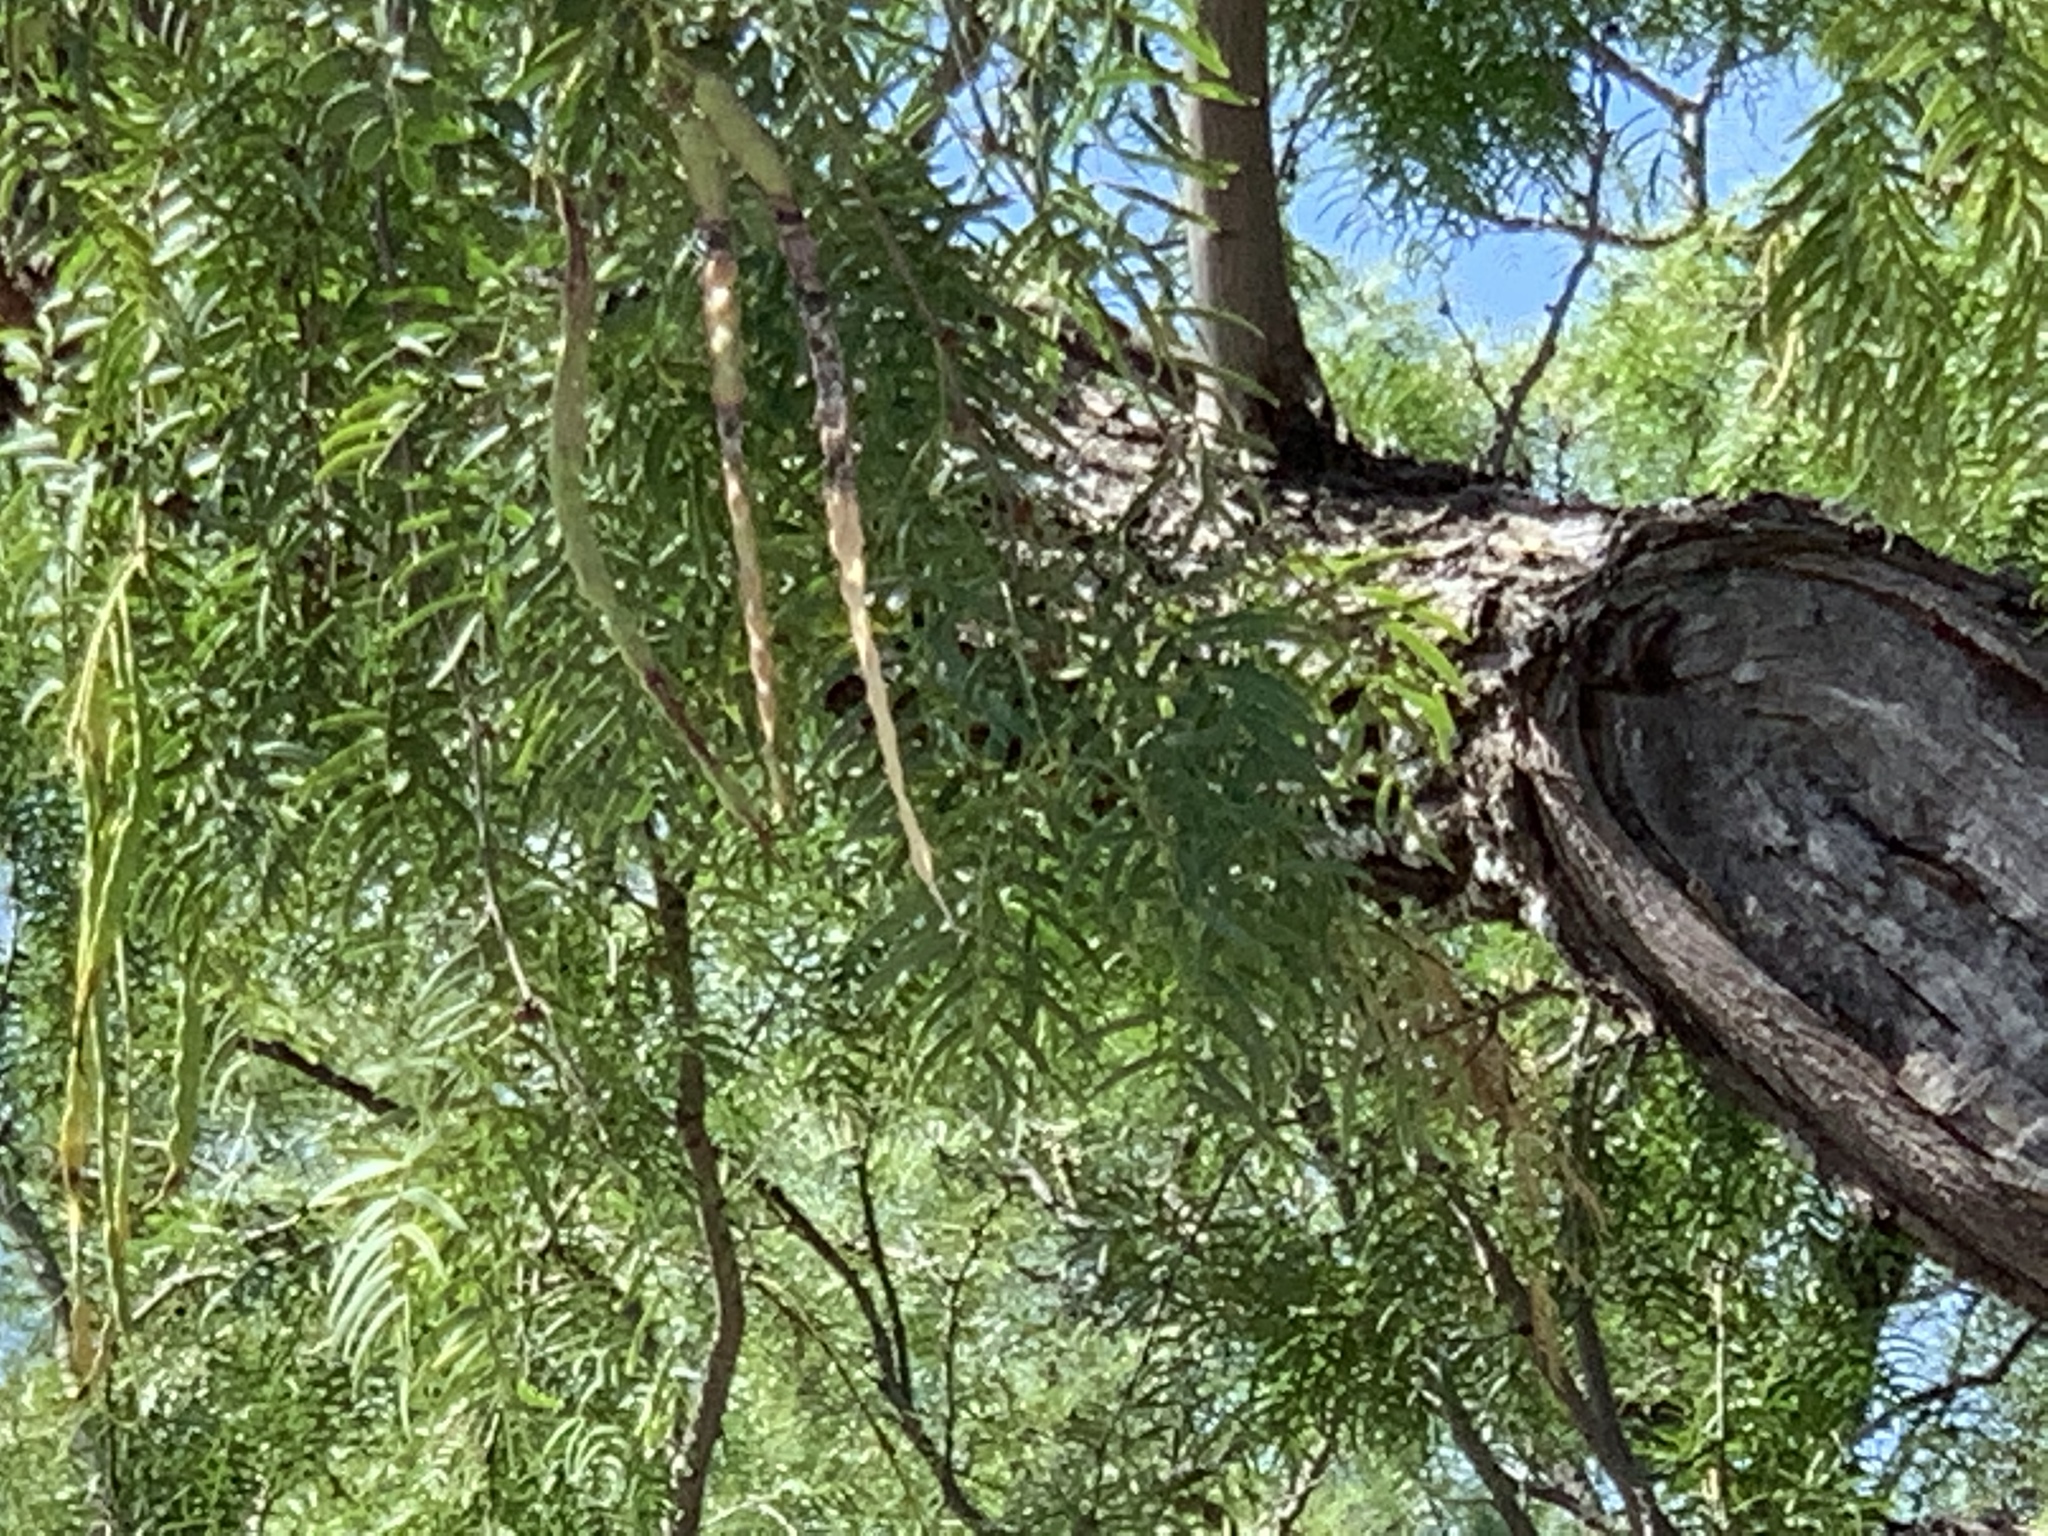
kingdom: Plantae
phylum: Tracheophyta
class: Magnoliopsida
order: Fabales
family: Fabaceae
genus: Prosopis
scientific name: Prosopis glandulosa
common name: Honey mesquite
